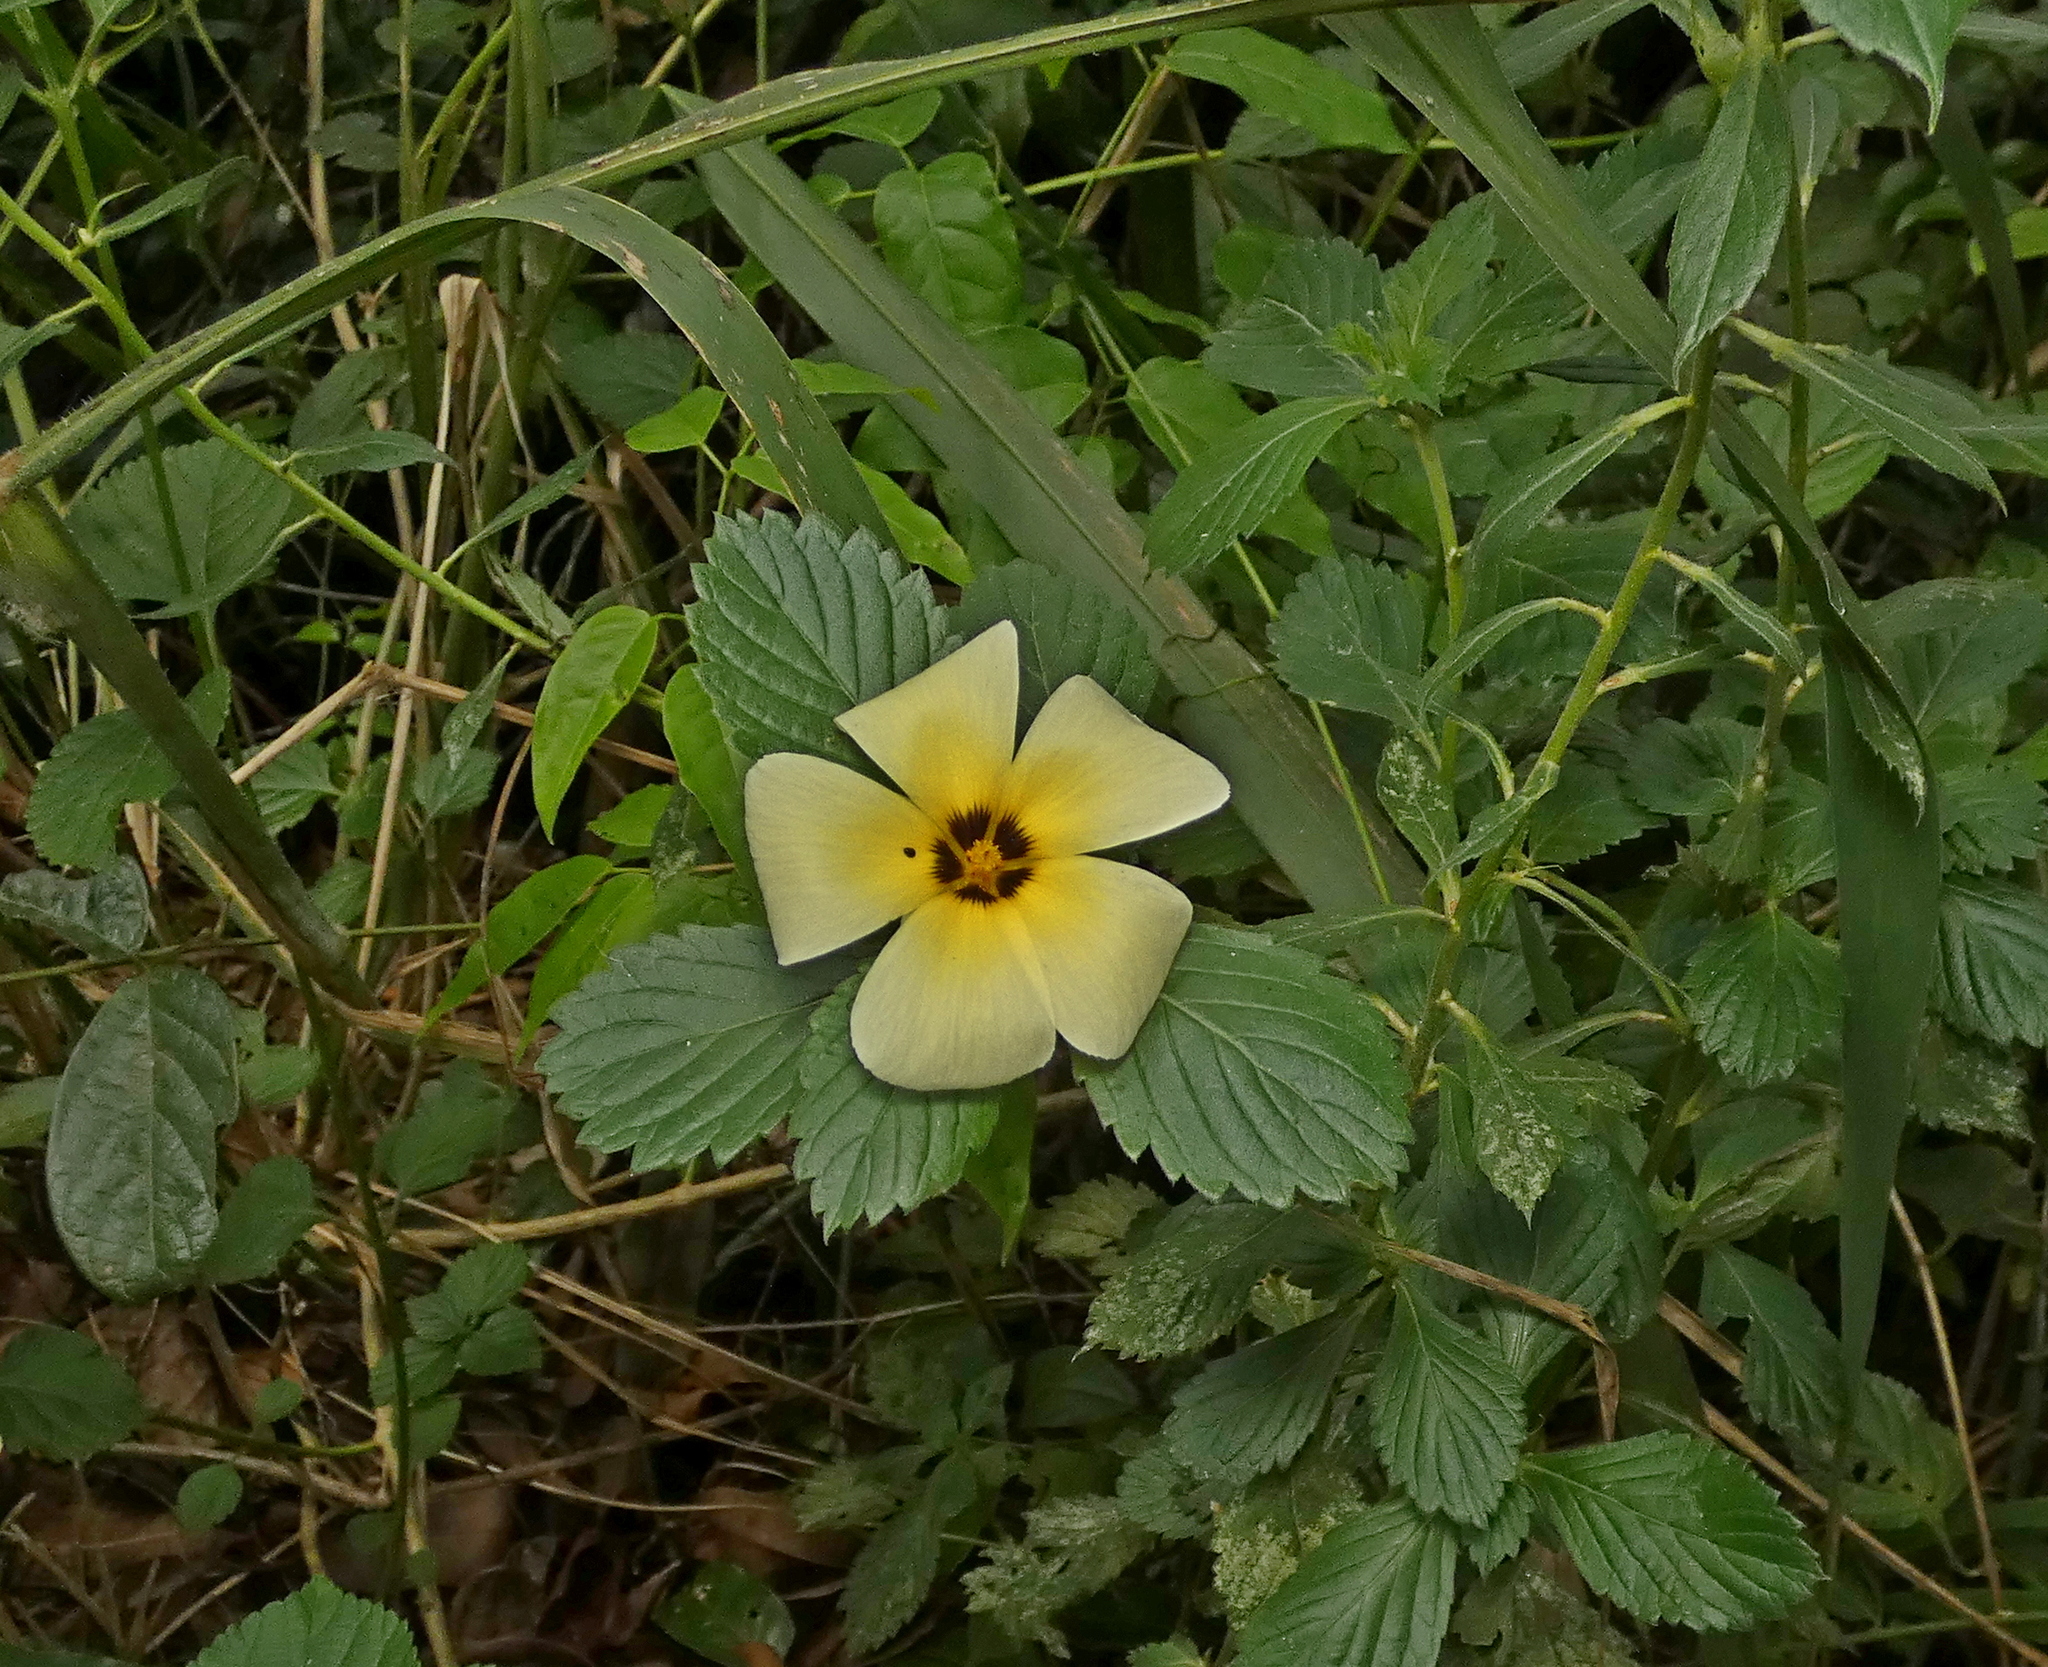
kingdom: Plantae
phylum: Tracheophyta
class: Magnoliopsida
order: Malpighiales
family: Turneraceae
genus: Turnera
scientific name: Turnera subulata
